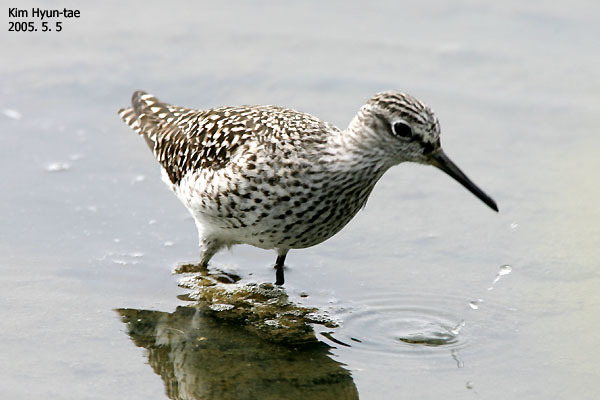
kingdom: Animalia
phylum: Chordata
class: Aves
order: Charadriiformes
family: Scolopacidae
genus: Tringa
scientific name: Tringa glareola
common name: Wood sandpiper
